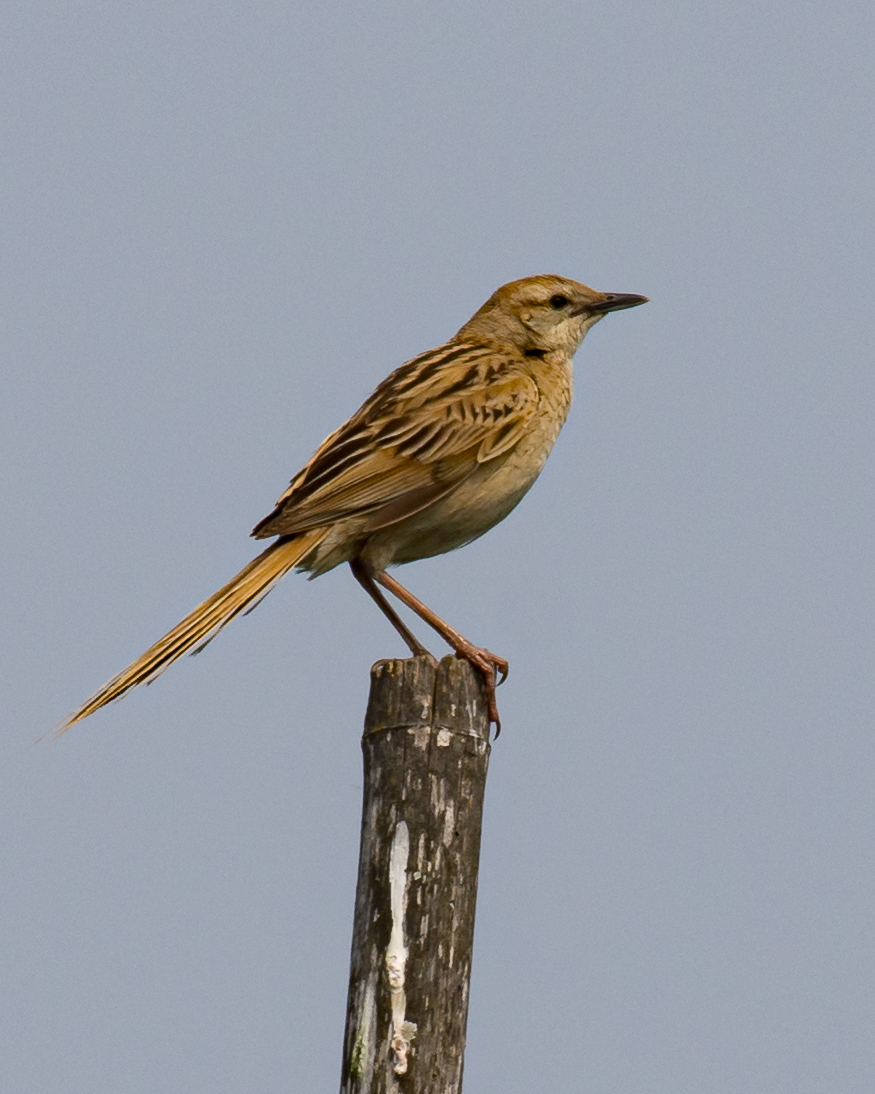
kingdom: Animalia
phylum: Chordata
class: Aves
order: Passeriformes
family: Locustellidae
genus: Megalurus
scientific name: Megalurus palustris
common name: Striated grassbird
